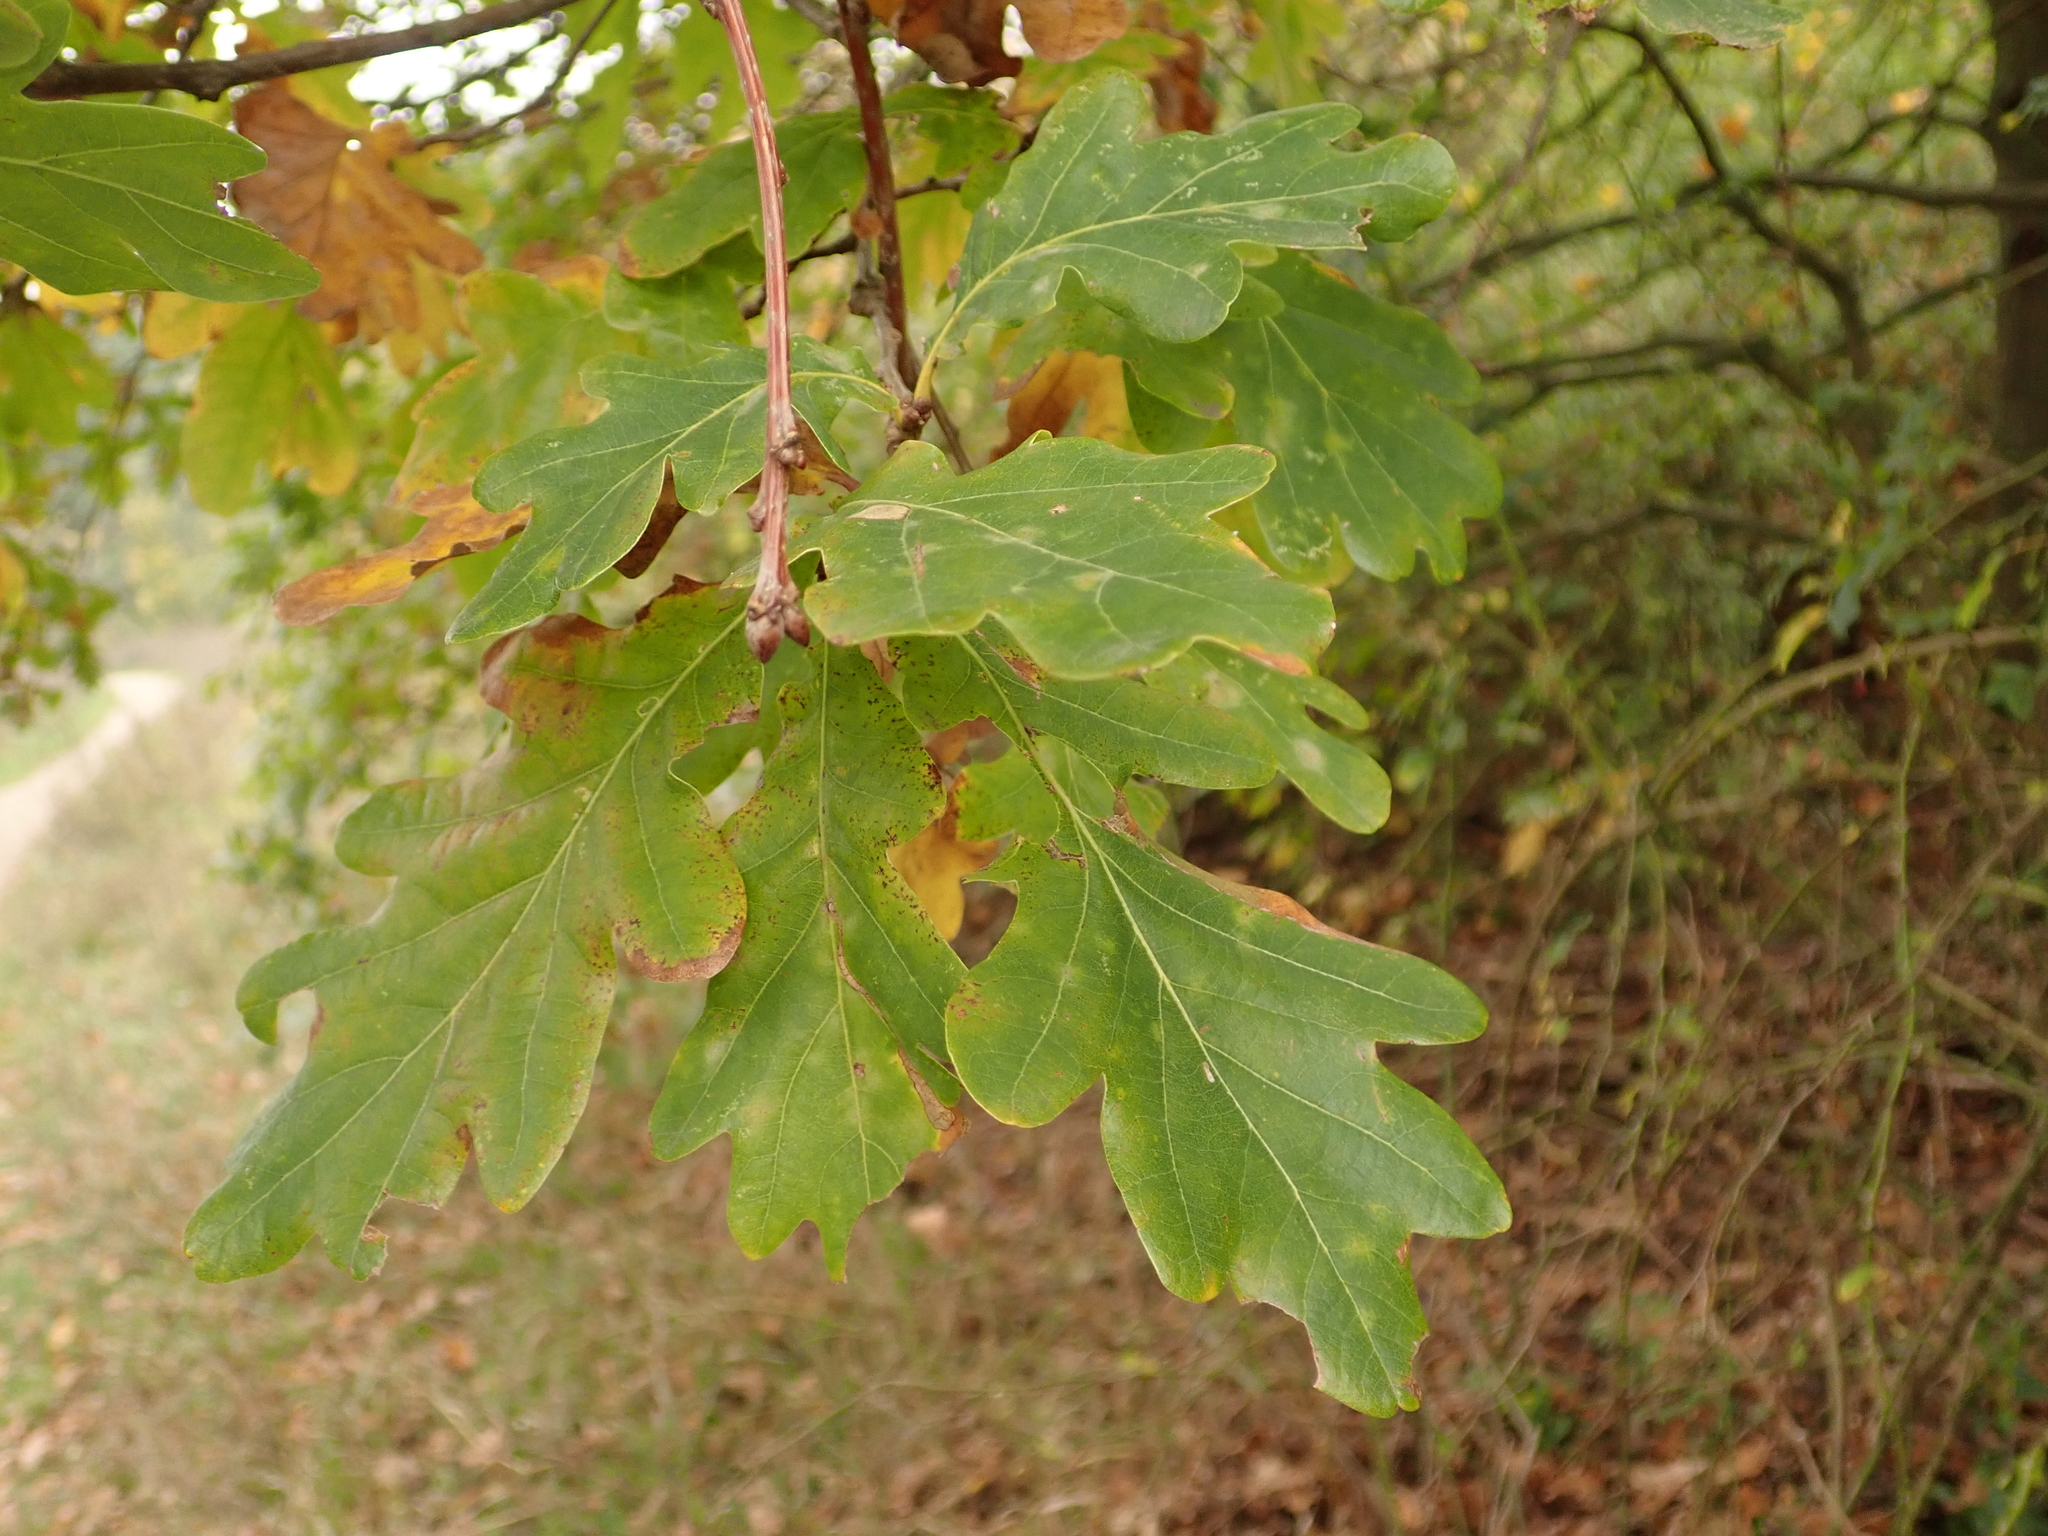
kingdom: Plantae
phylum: Tracheophyta
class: Magnoliopsida
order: Fagales
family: Fagaceae
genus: Quercus
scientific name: Quercus robur
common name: Pedunculate oak
